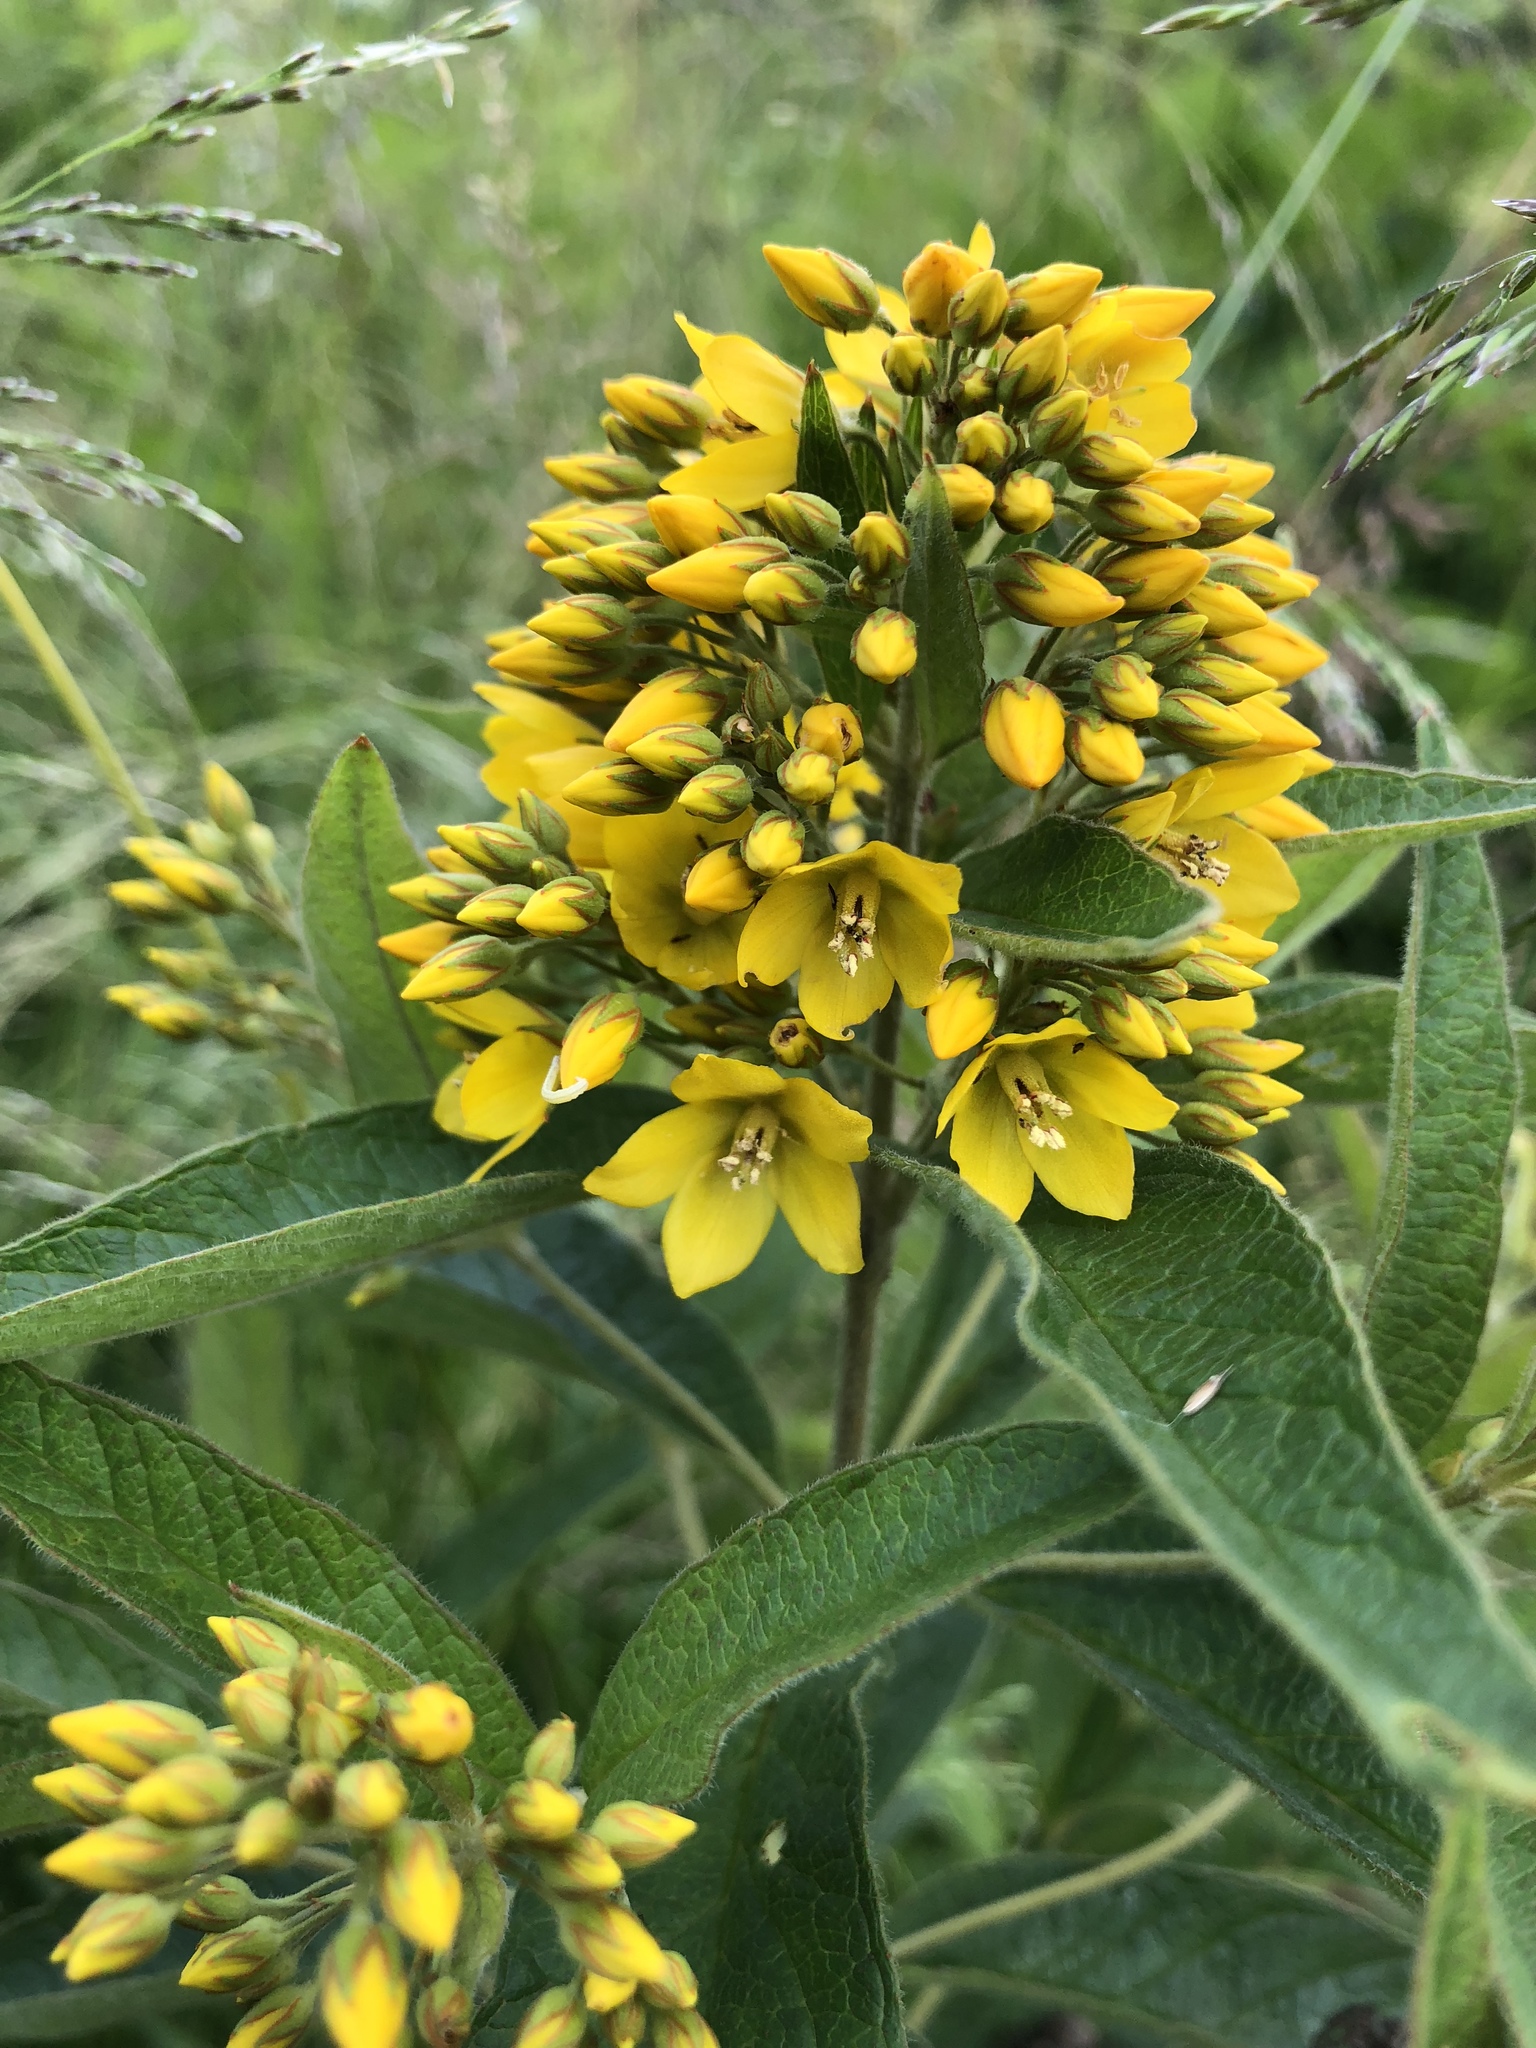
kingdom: Plantae
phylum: Tracheophyta
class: Magnoliopsida
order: Ericales
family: Primulaceae
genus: Lysimachia
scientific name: Lysimachia vulgaris
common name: Yellow loosestrife
